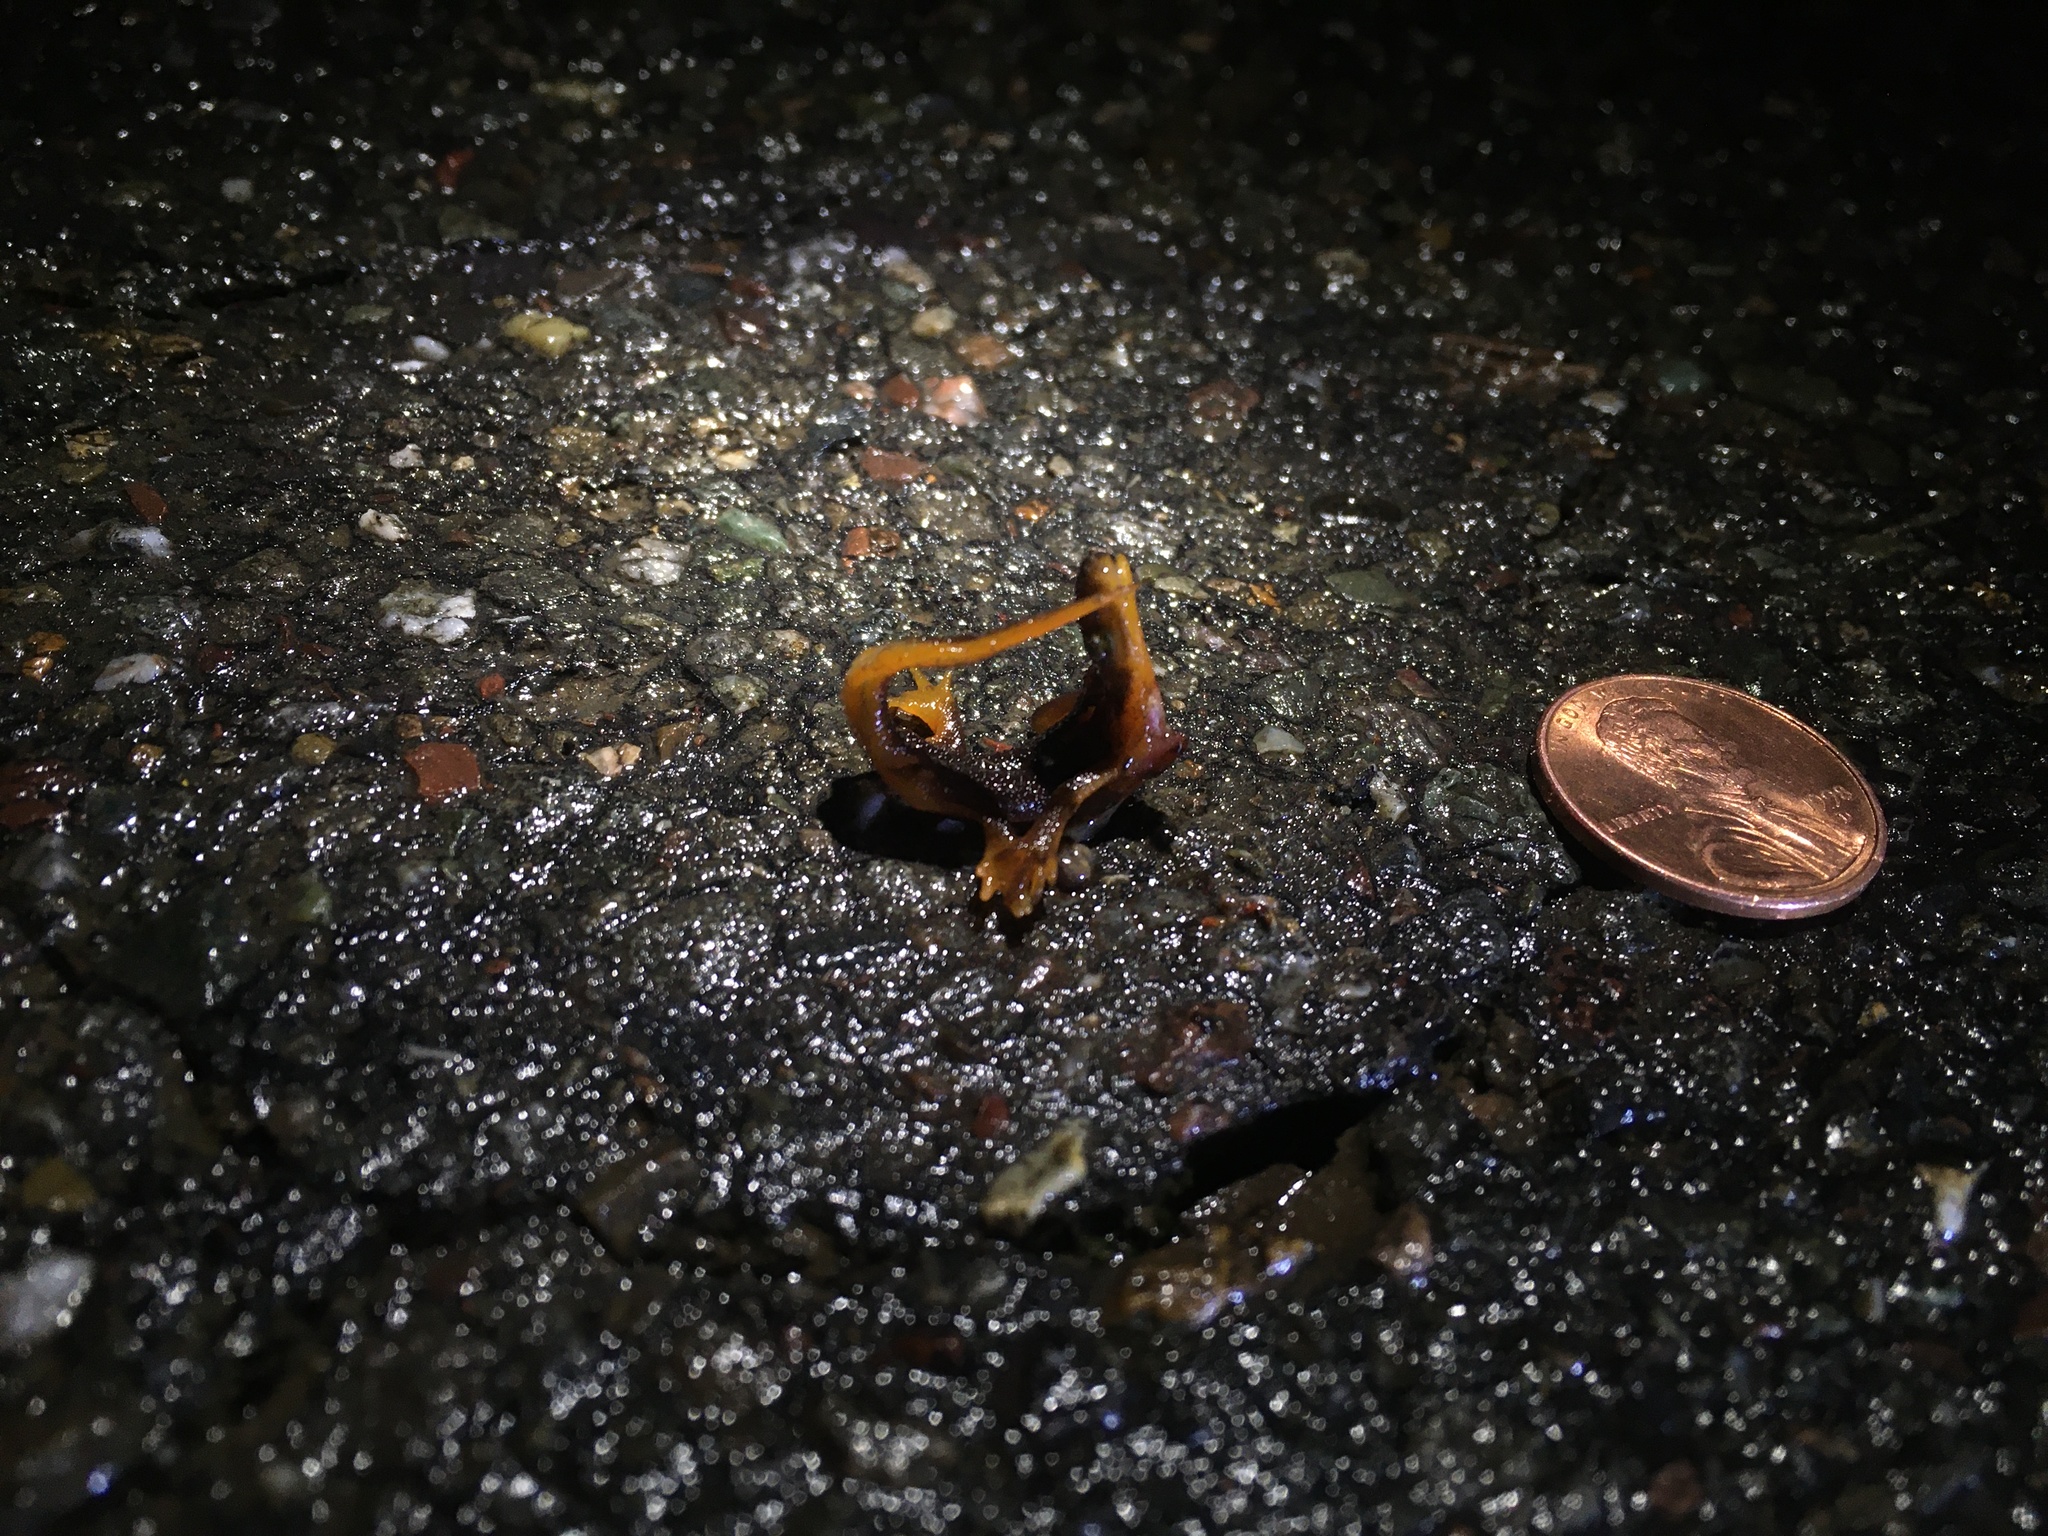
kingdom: Animalia
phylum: Chordata
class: Amphibia
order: Caudata
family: Salamandridae
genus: Taricha
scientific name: Taricha torosa
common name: California newt
